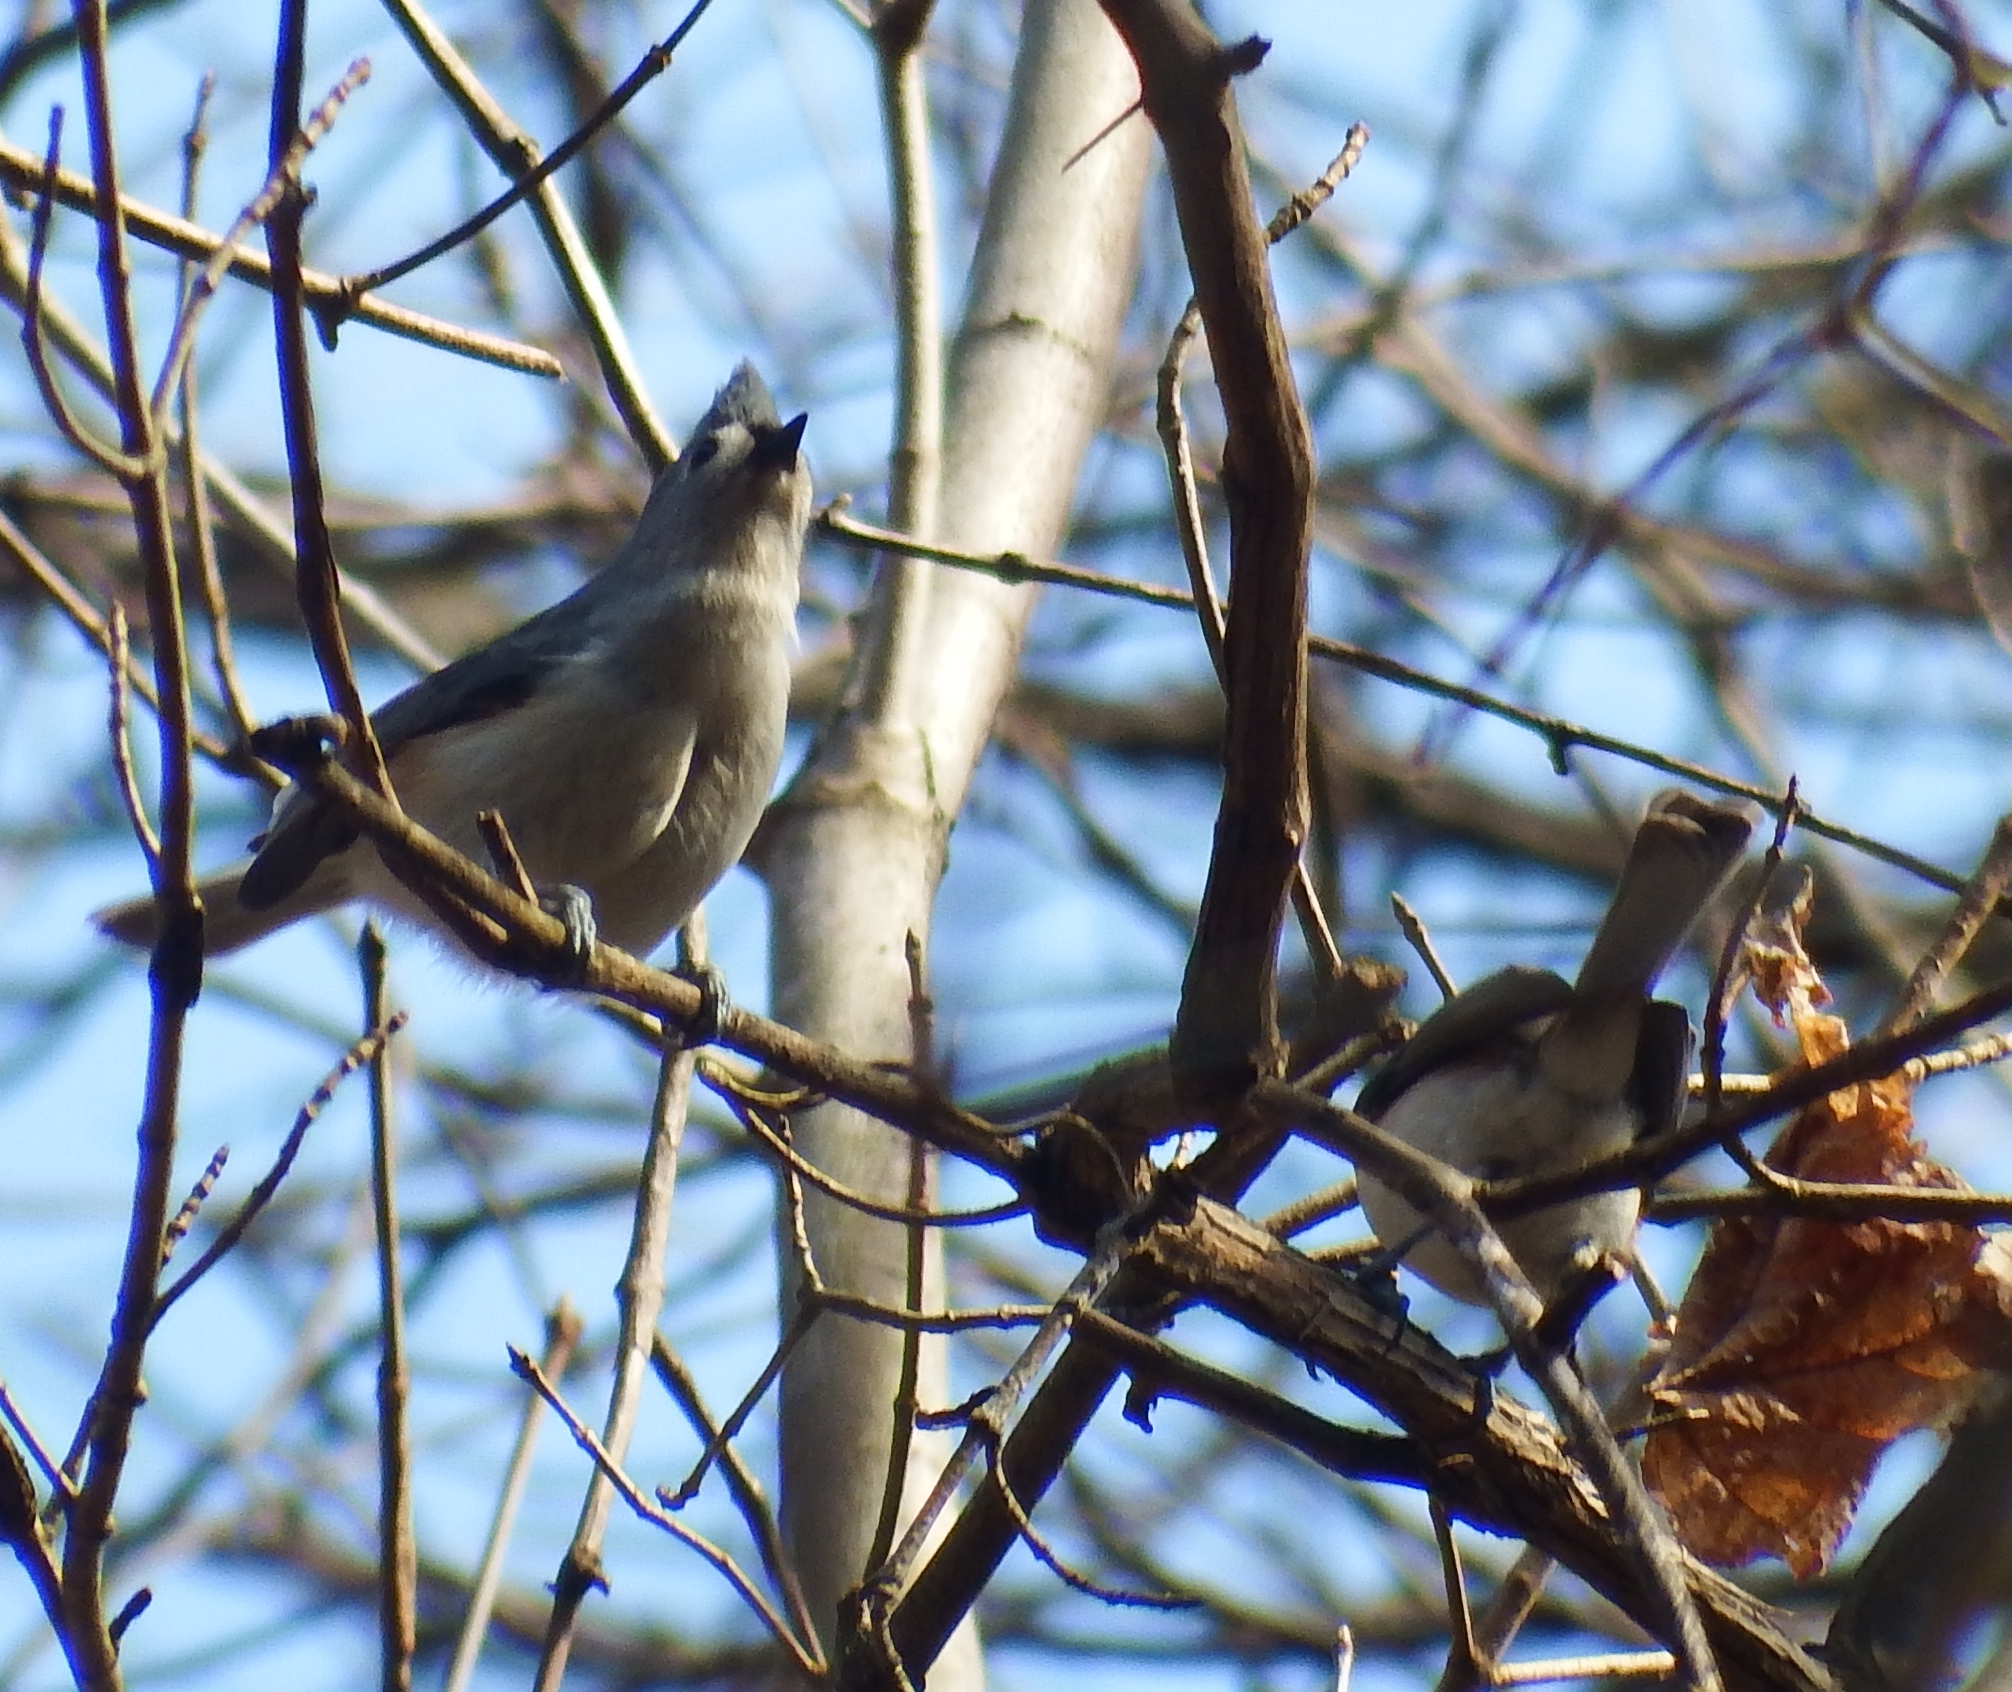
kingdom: Animalia
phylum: Chordata
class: Aves
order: Passeriformes
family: Paridae
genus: Baeolophus
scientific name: Baeolophus bicolor
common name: Tufted titmouse
